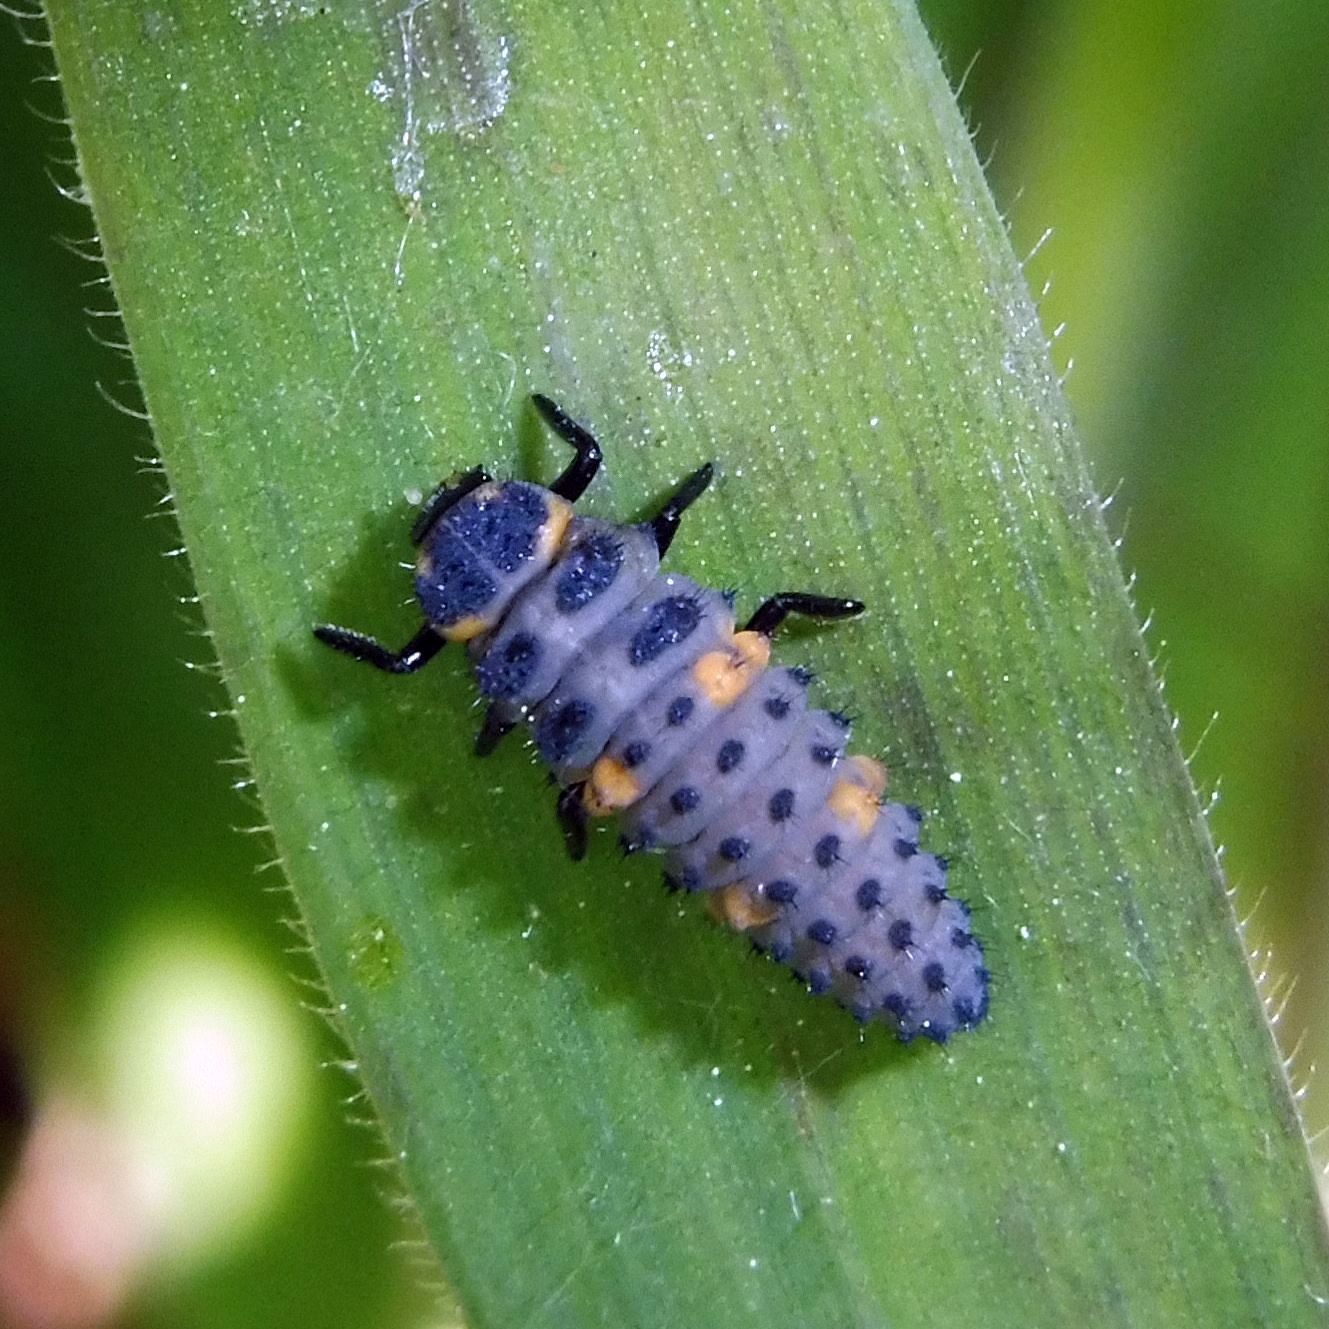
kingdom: Animalia
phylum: Arthropoda
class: Insecta
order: Coleoptera
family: Coccinellidae
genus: Coccinella
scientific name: Coccinella septempunctata
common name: Sevenspotted lady beetle
